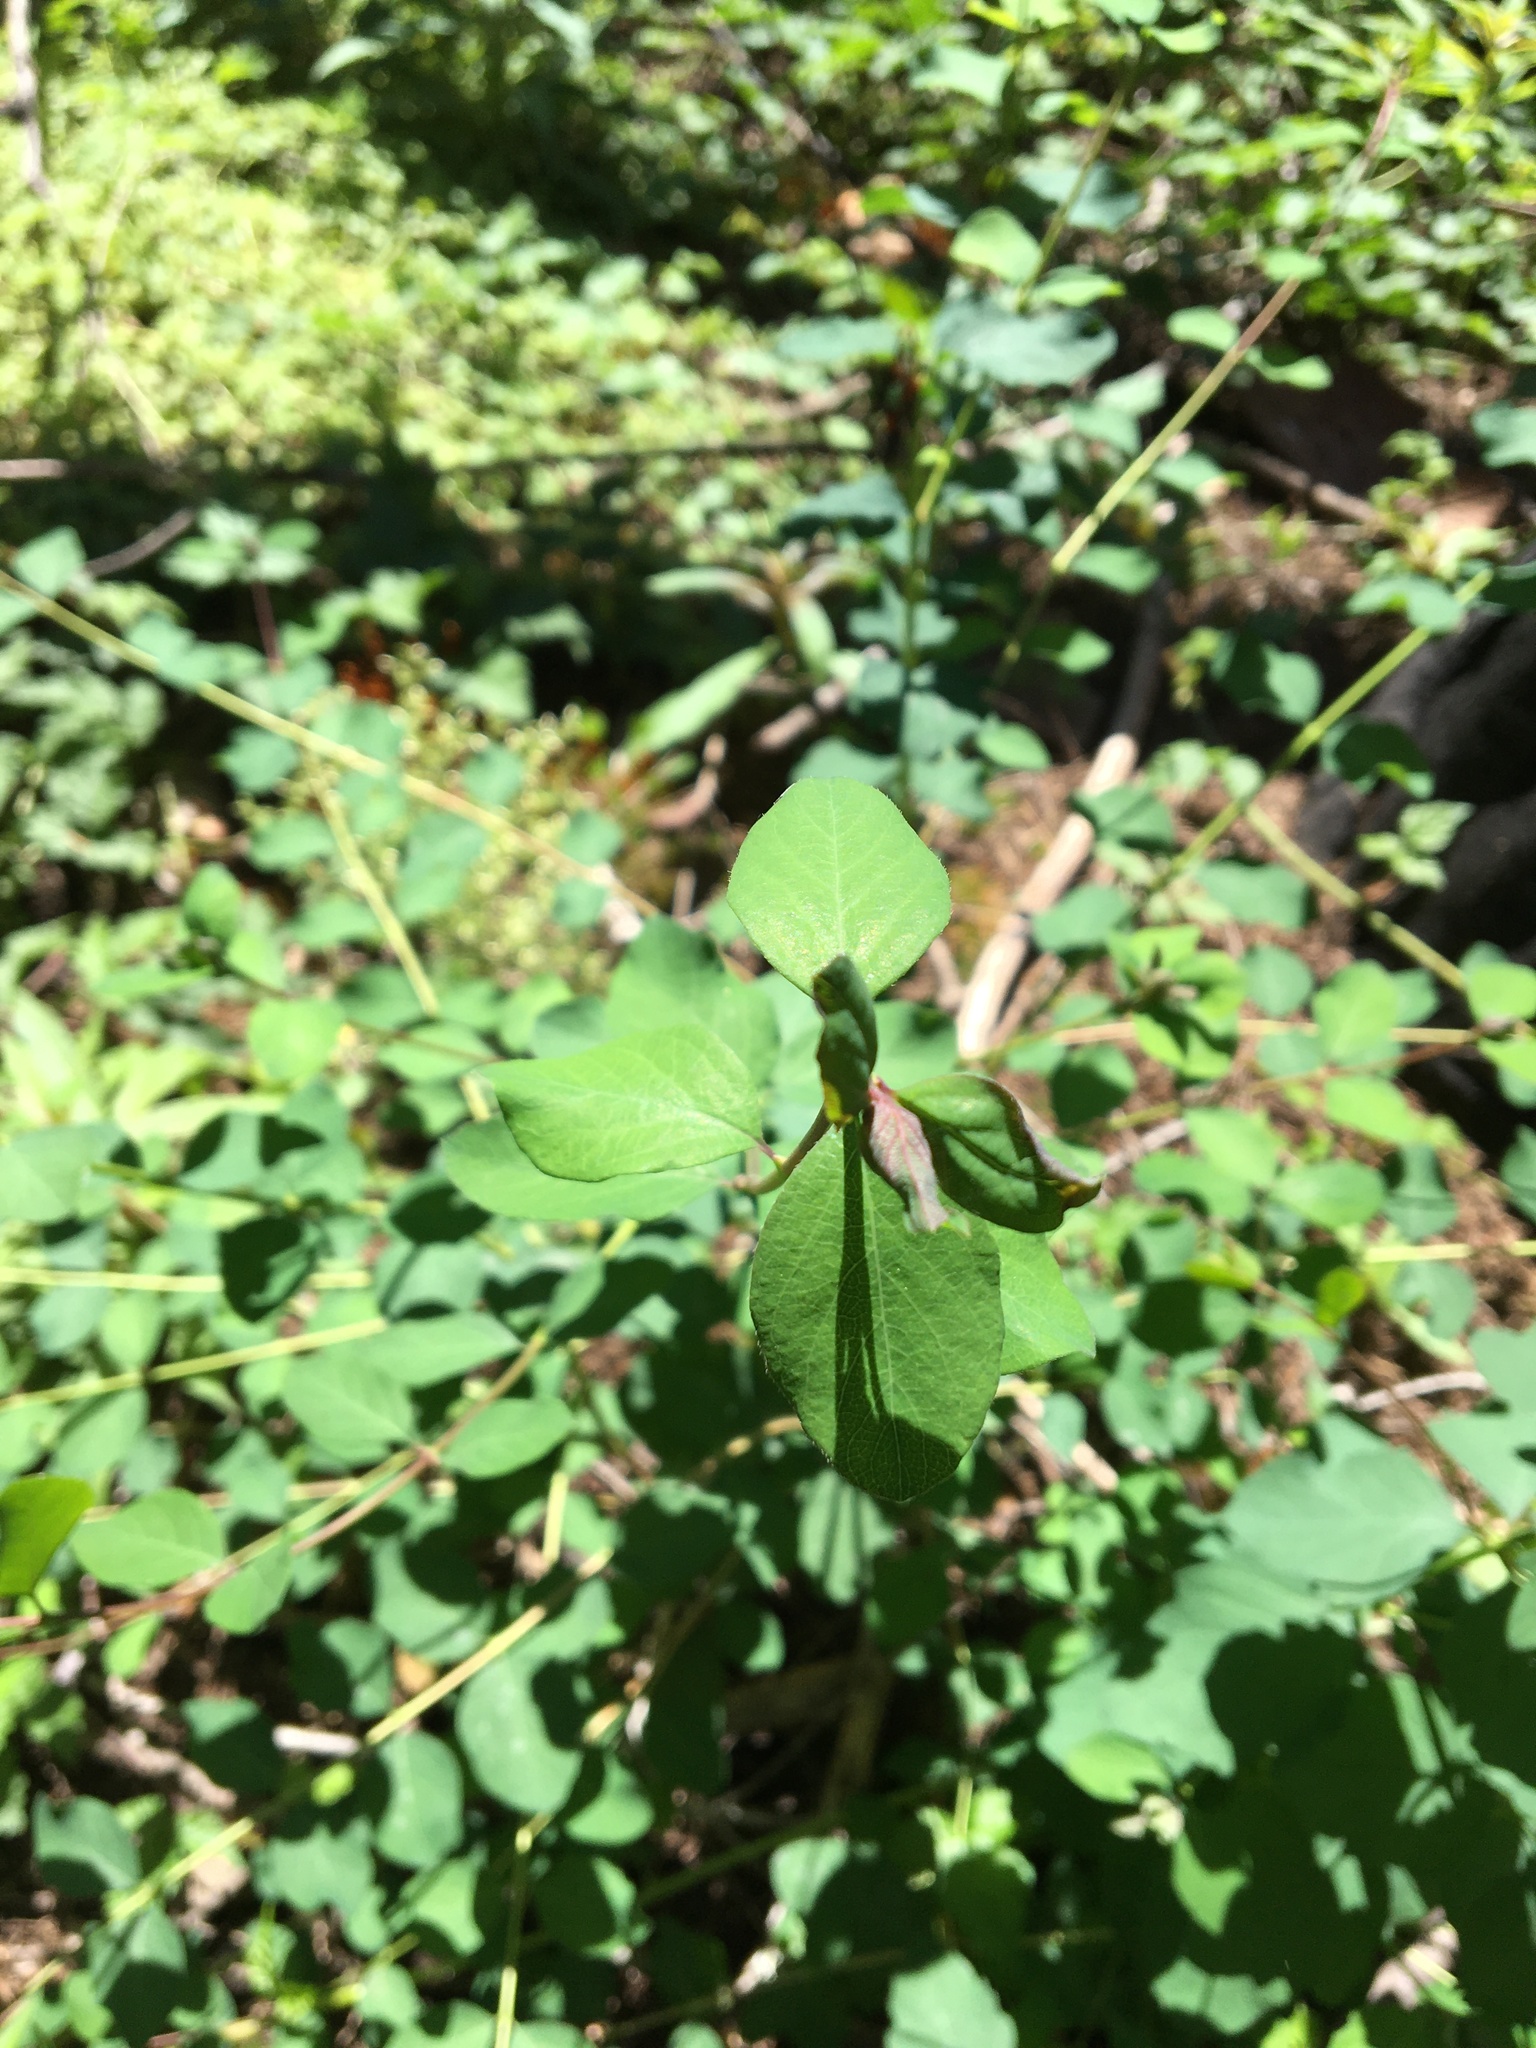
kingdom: Plantae
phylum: Tracheophyta
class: Magnoliopsida
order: Dipsacales
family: Caprifoliaceae
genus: Symphoricarpos
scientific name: Symphoricarpos albus
